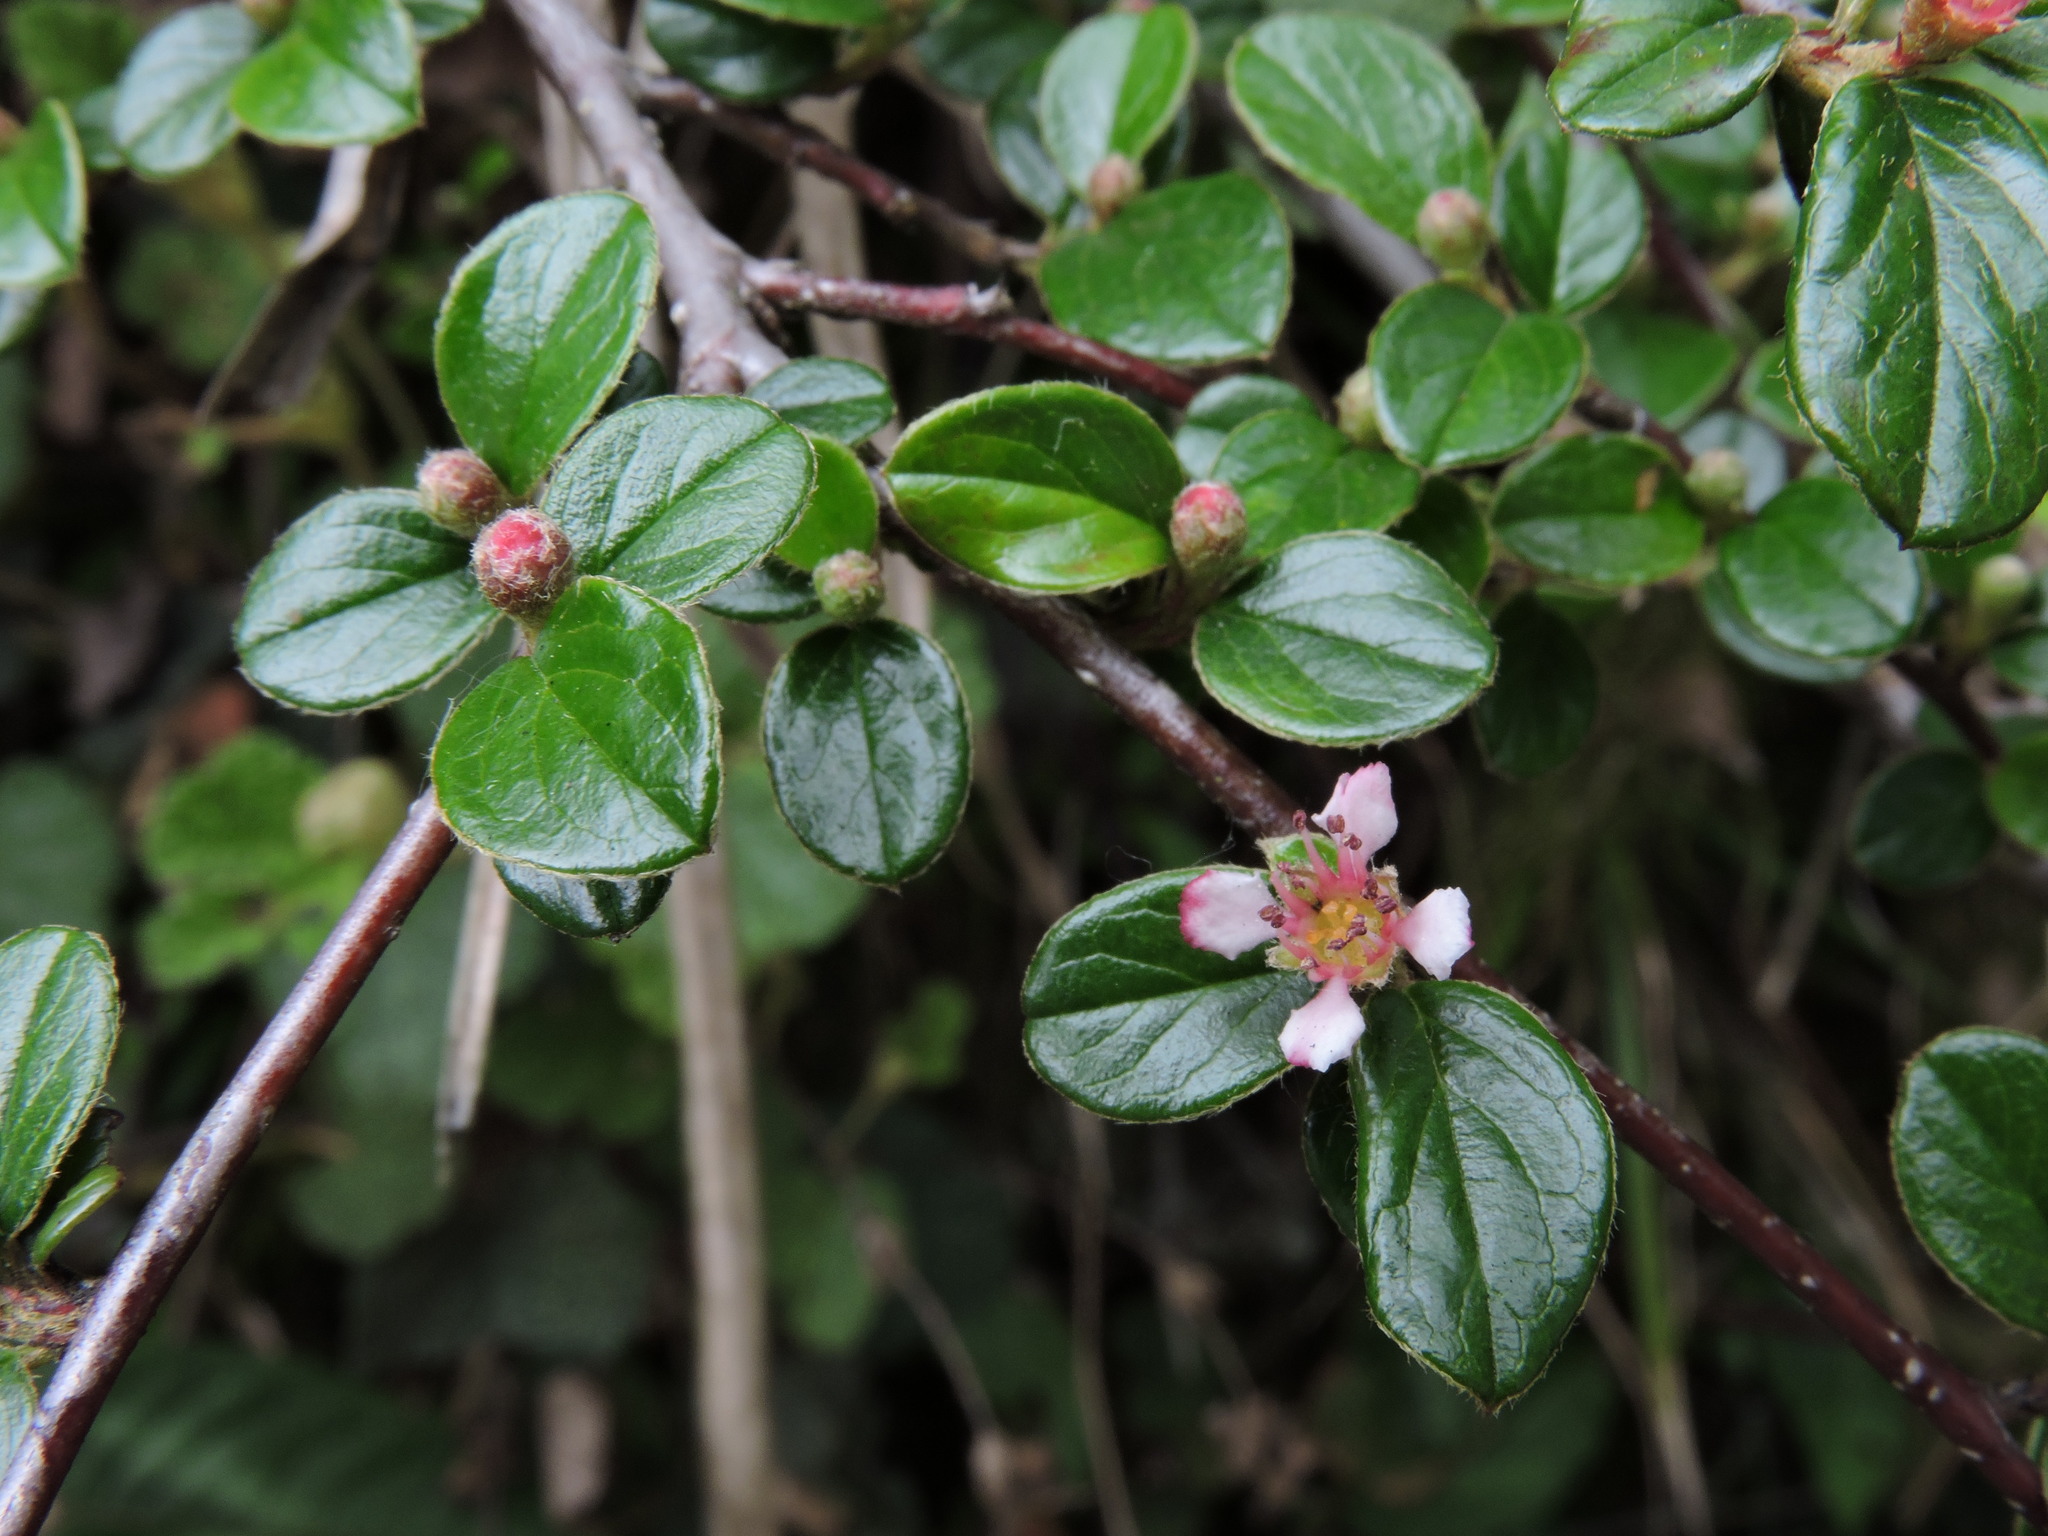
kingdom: Plantae
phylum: Tracheophyta
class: Magnoliopsida
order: Rosales
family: Rosaceae
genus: Cotoneaster
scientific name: Cotoneaster rosiflorus
